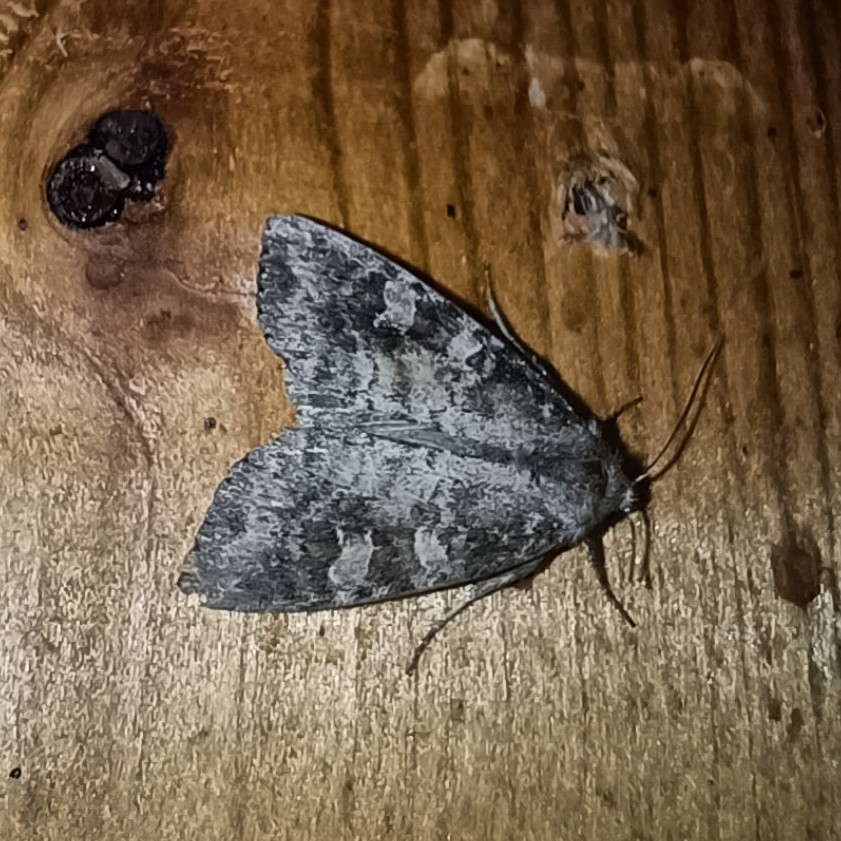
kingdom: Animalia
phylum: Arthropoda
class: Insecta
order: Lepidoptera
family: Noctuidae
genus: Parastichtis
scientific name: Parastichtis suspecta
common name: Suspected
